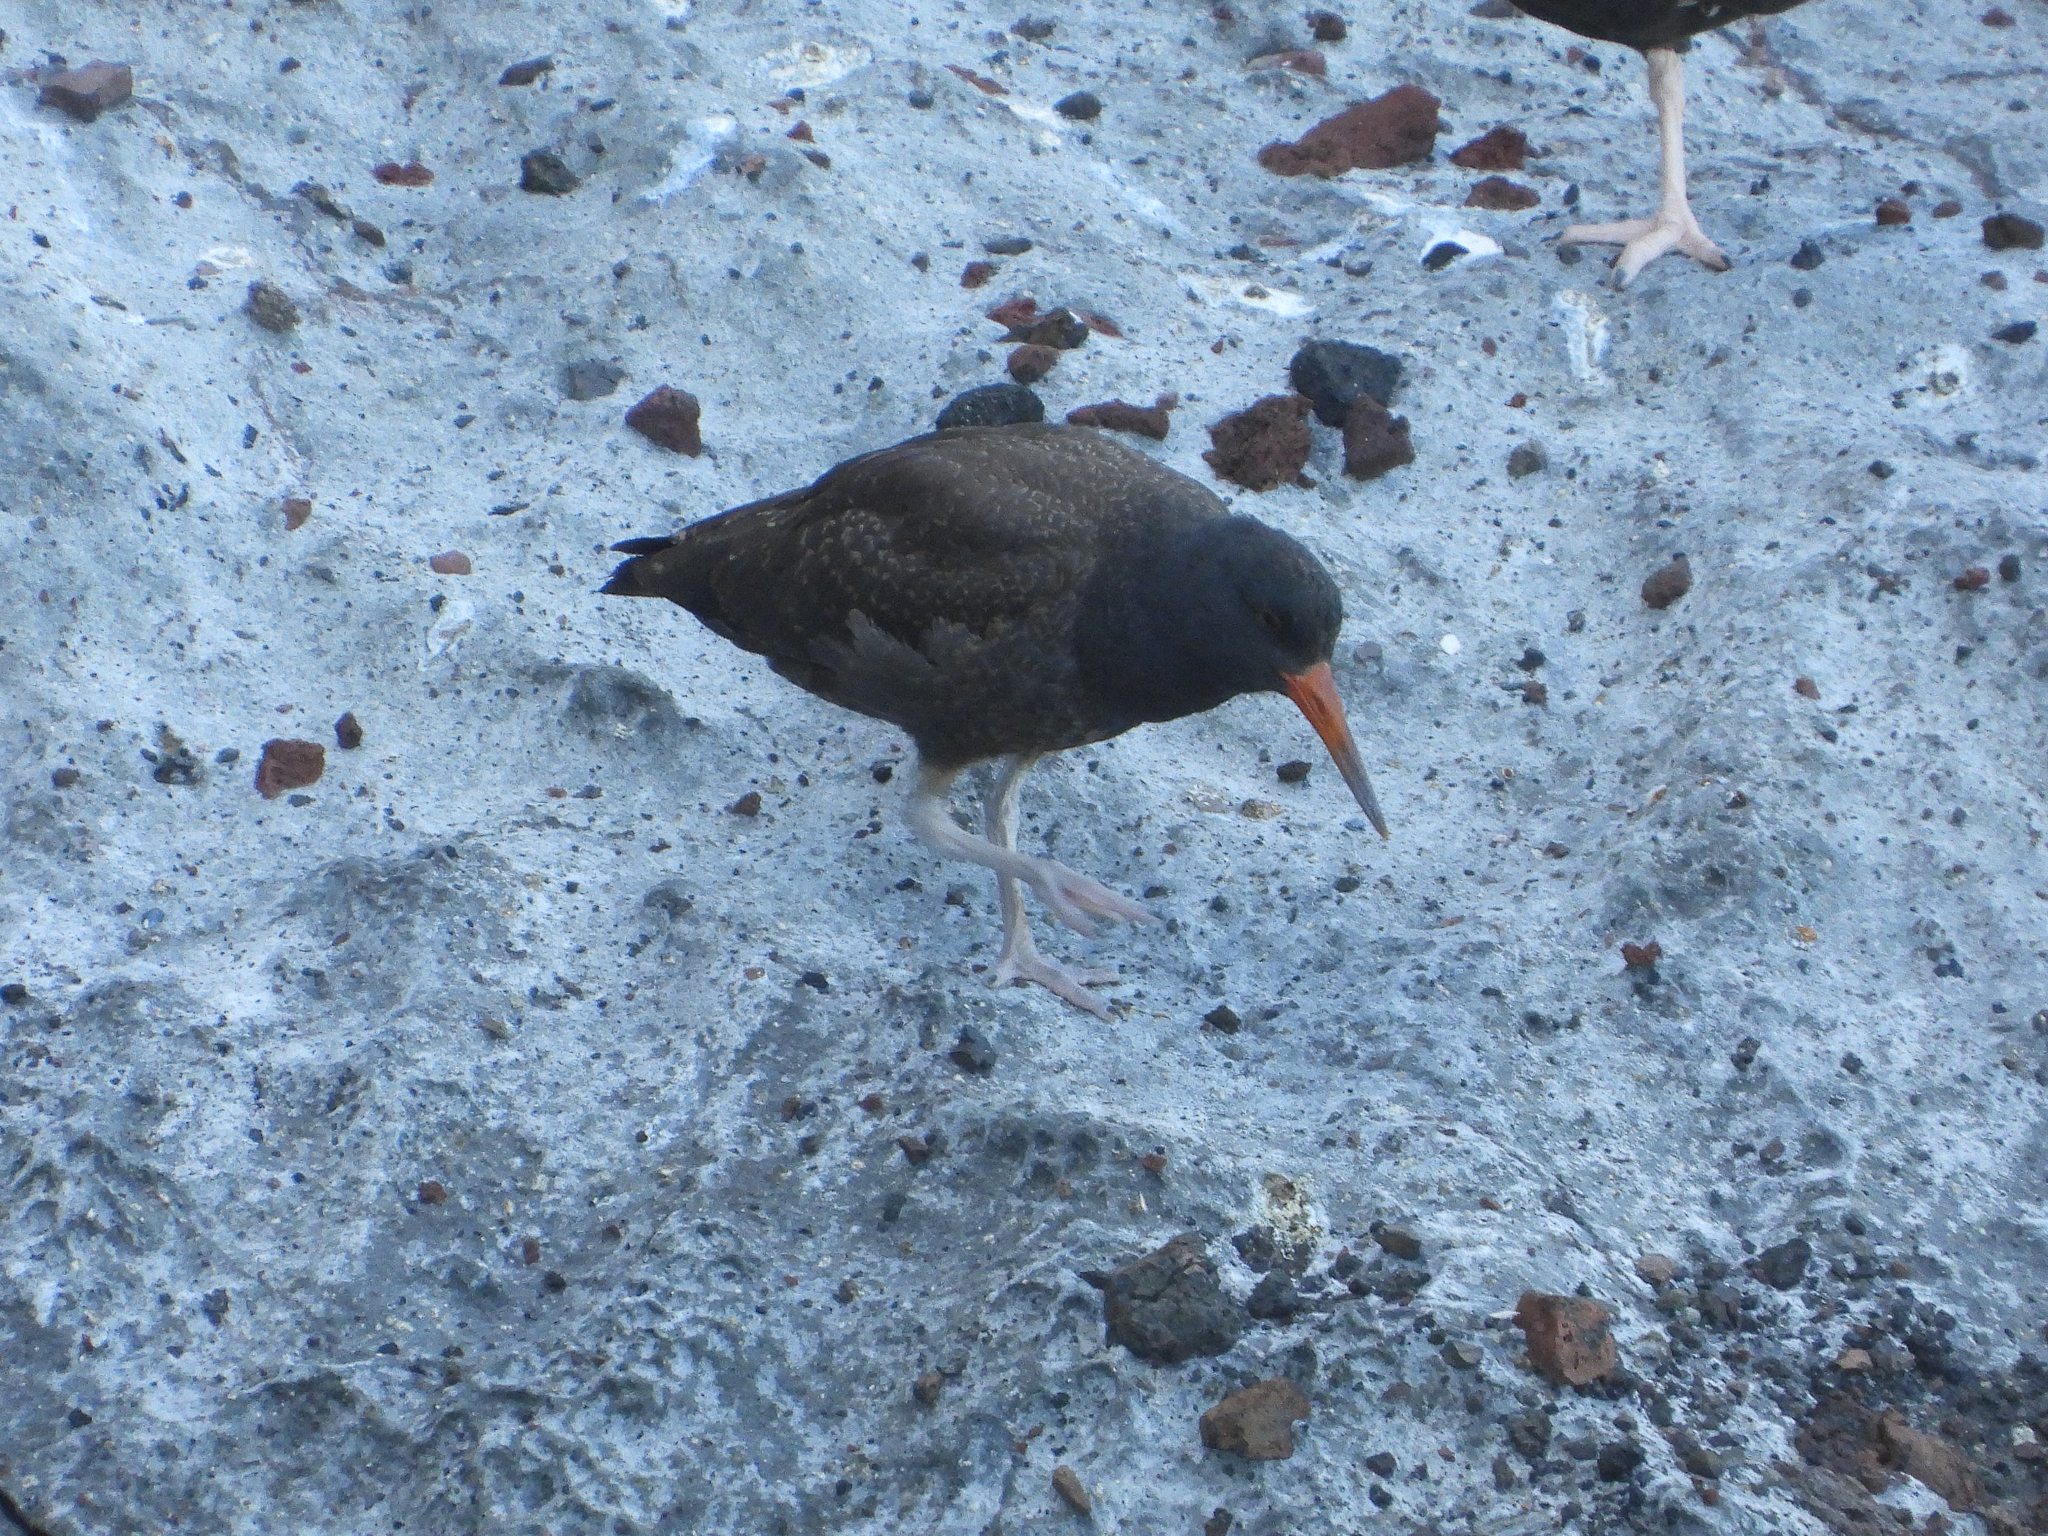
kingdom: Animalia
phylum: Chordata
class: Aves
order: Charadriiformes
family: Haematopodidae
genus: Haematopus
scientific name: Haematopus bachmani
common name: Black oystercatcher
